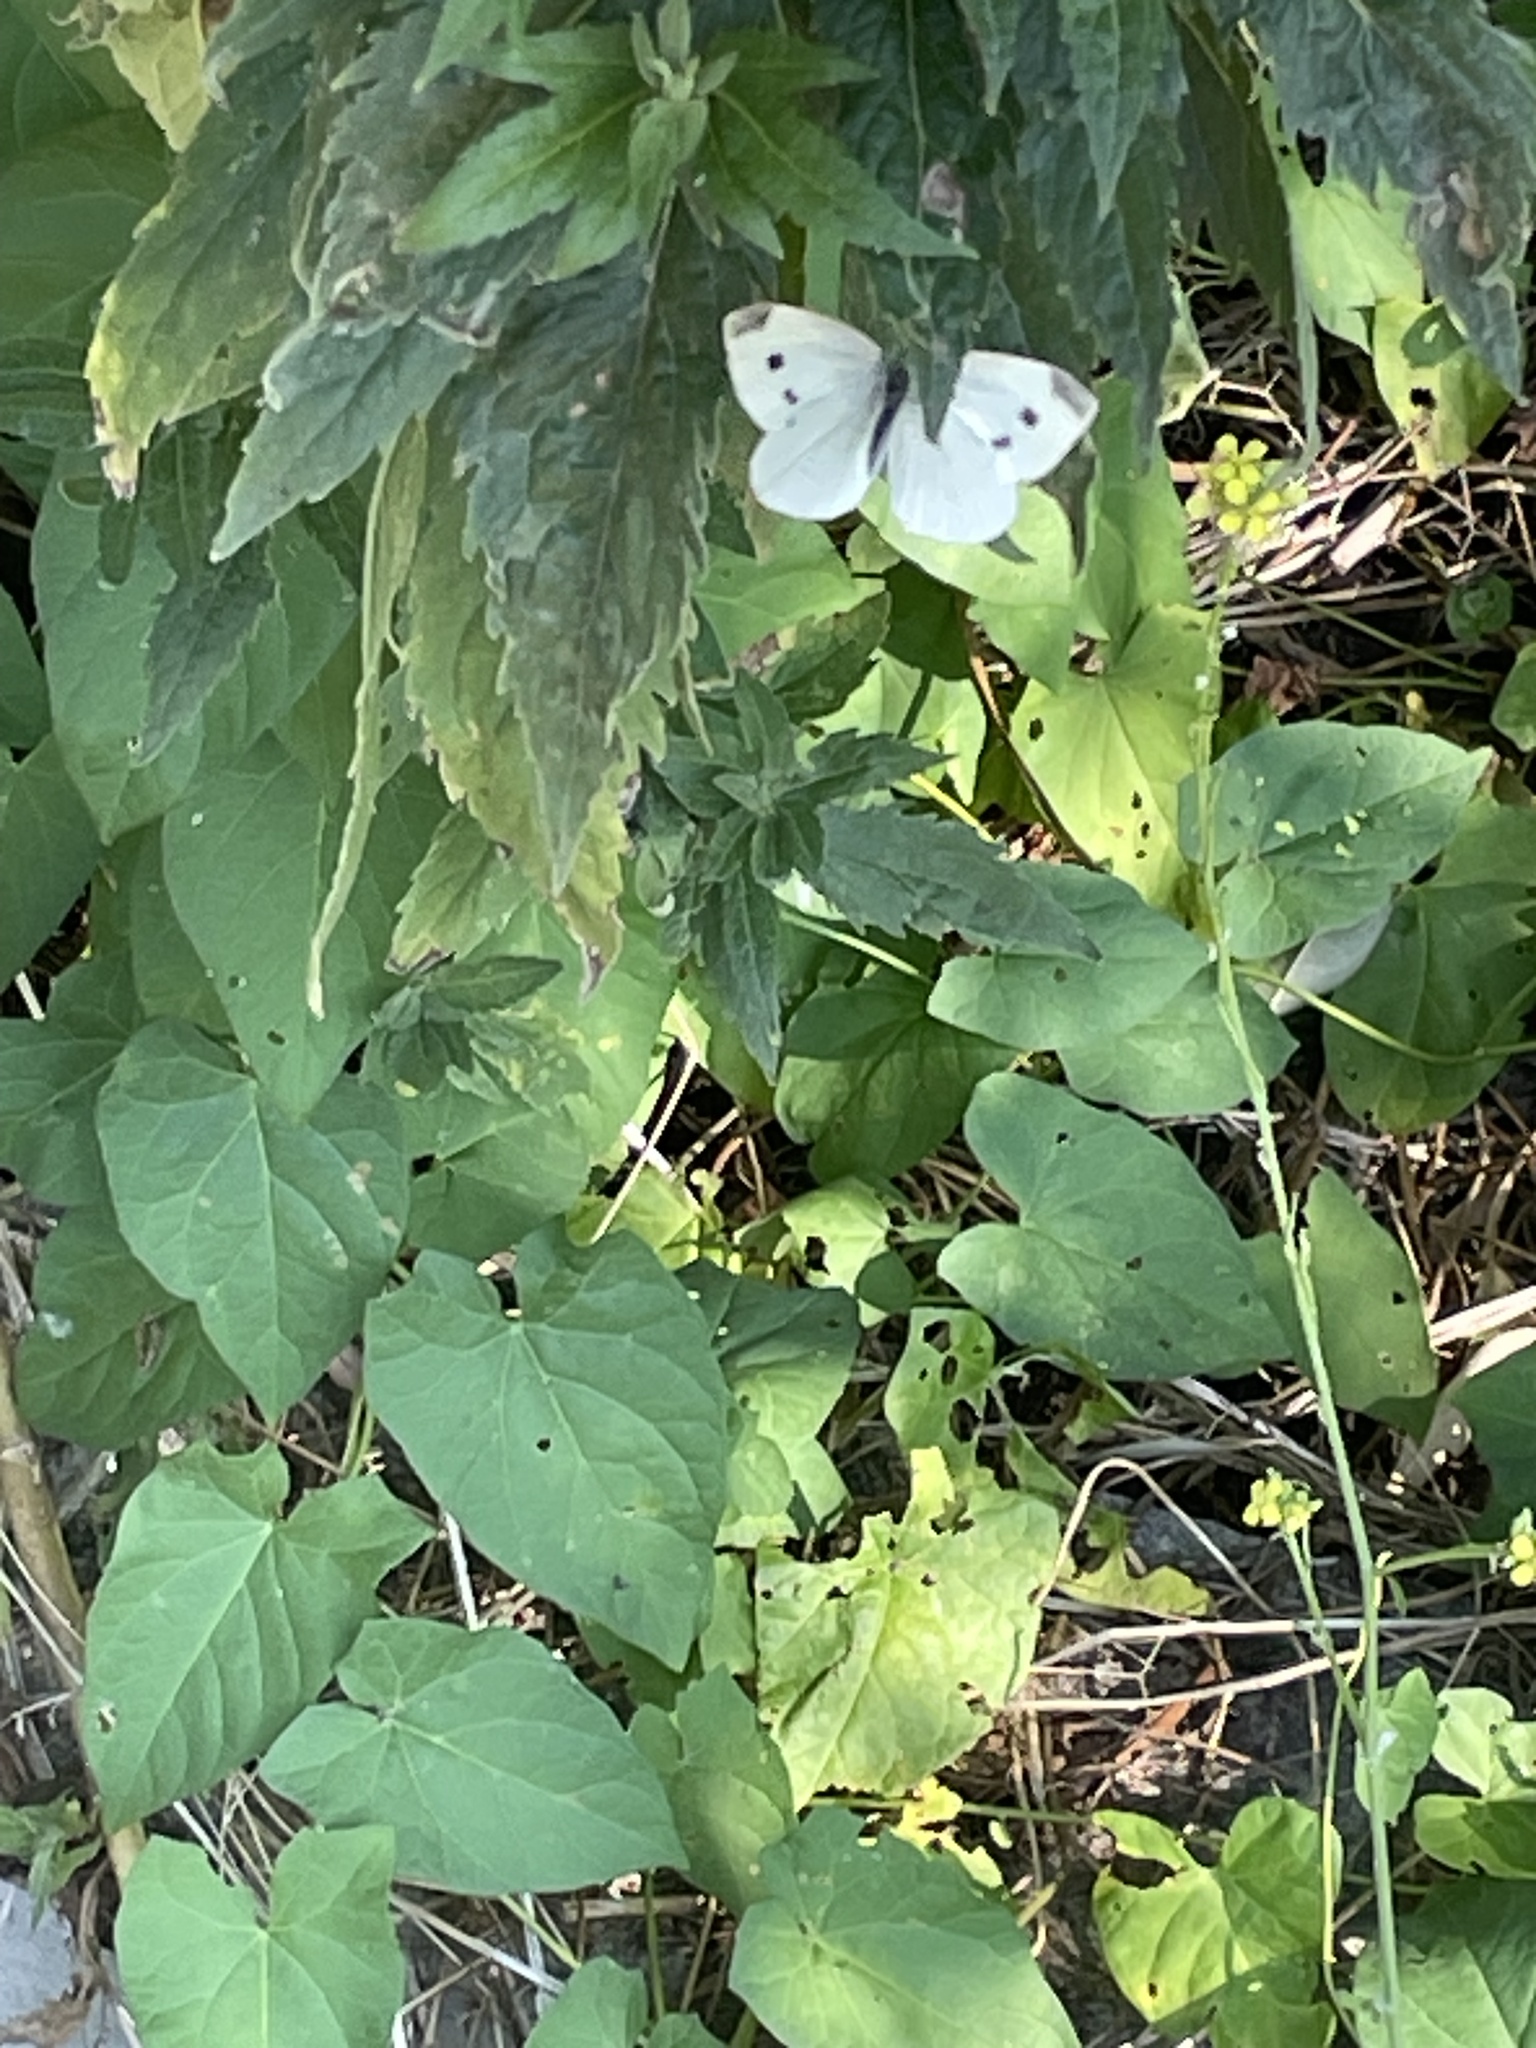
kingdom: Animalia
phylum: Arthropoda
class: Insecta
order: Lepidoptera
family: Pieridae
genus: Pieris
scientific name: Pieris rapae
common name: Small white
